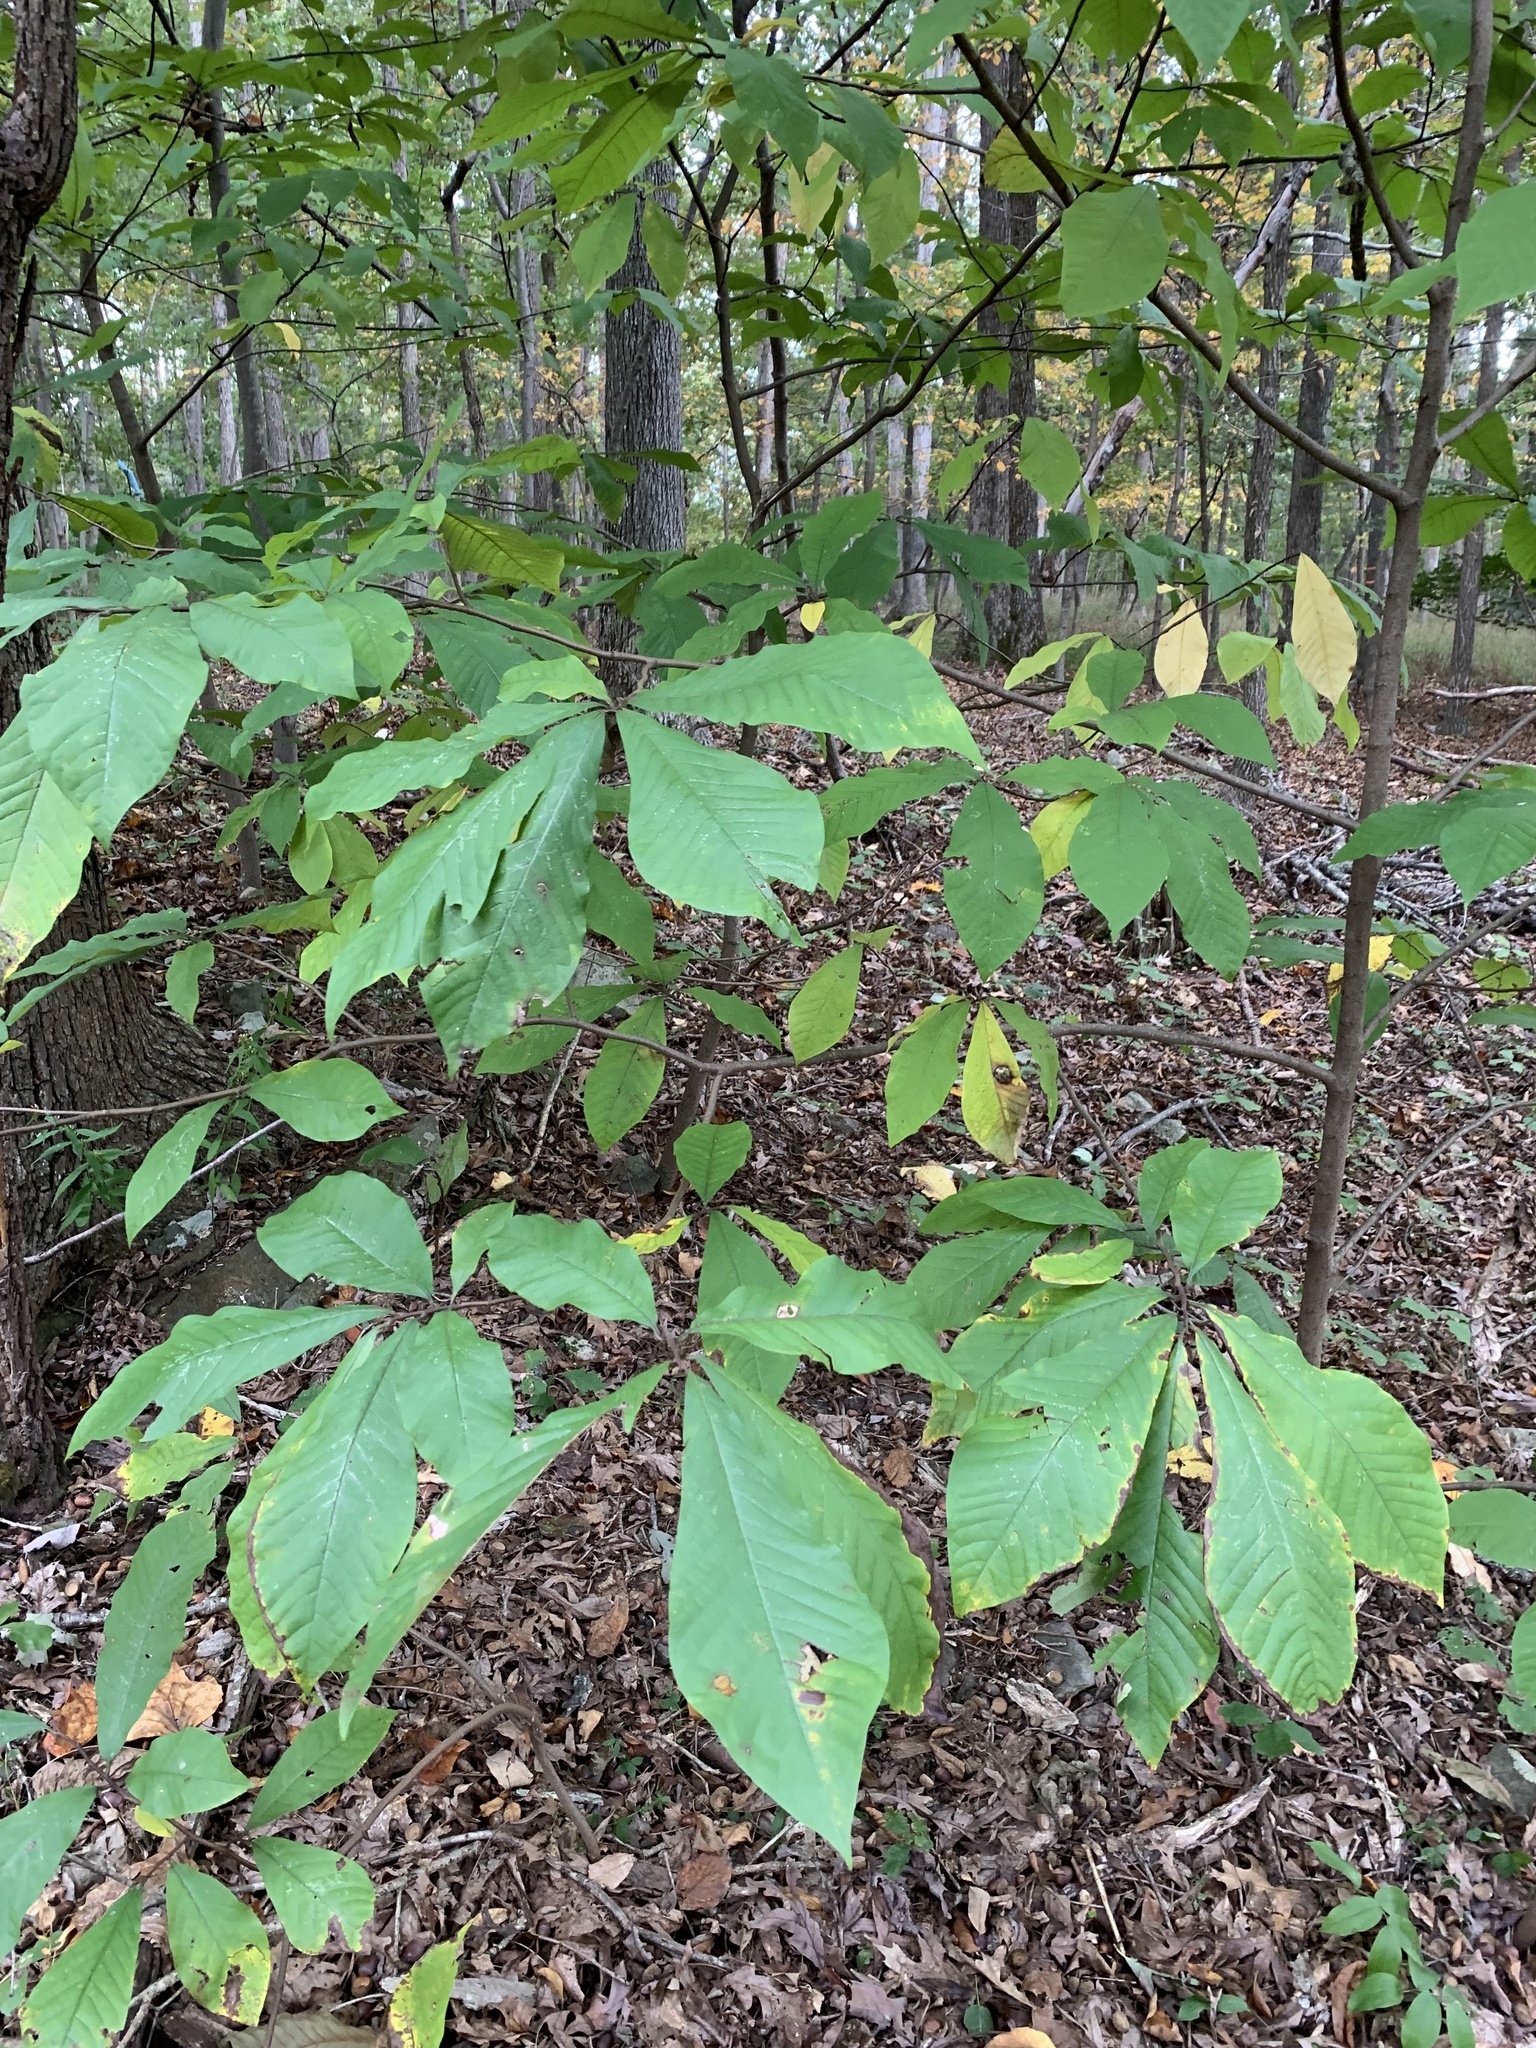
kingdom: Plantae
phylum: Tracheophyta
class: Magnoliopsida
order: Magnoliales
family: Annonaceae
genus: Asimina
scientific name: Asimina triloba
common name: Dog-banana
